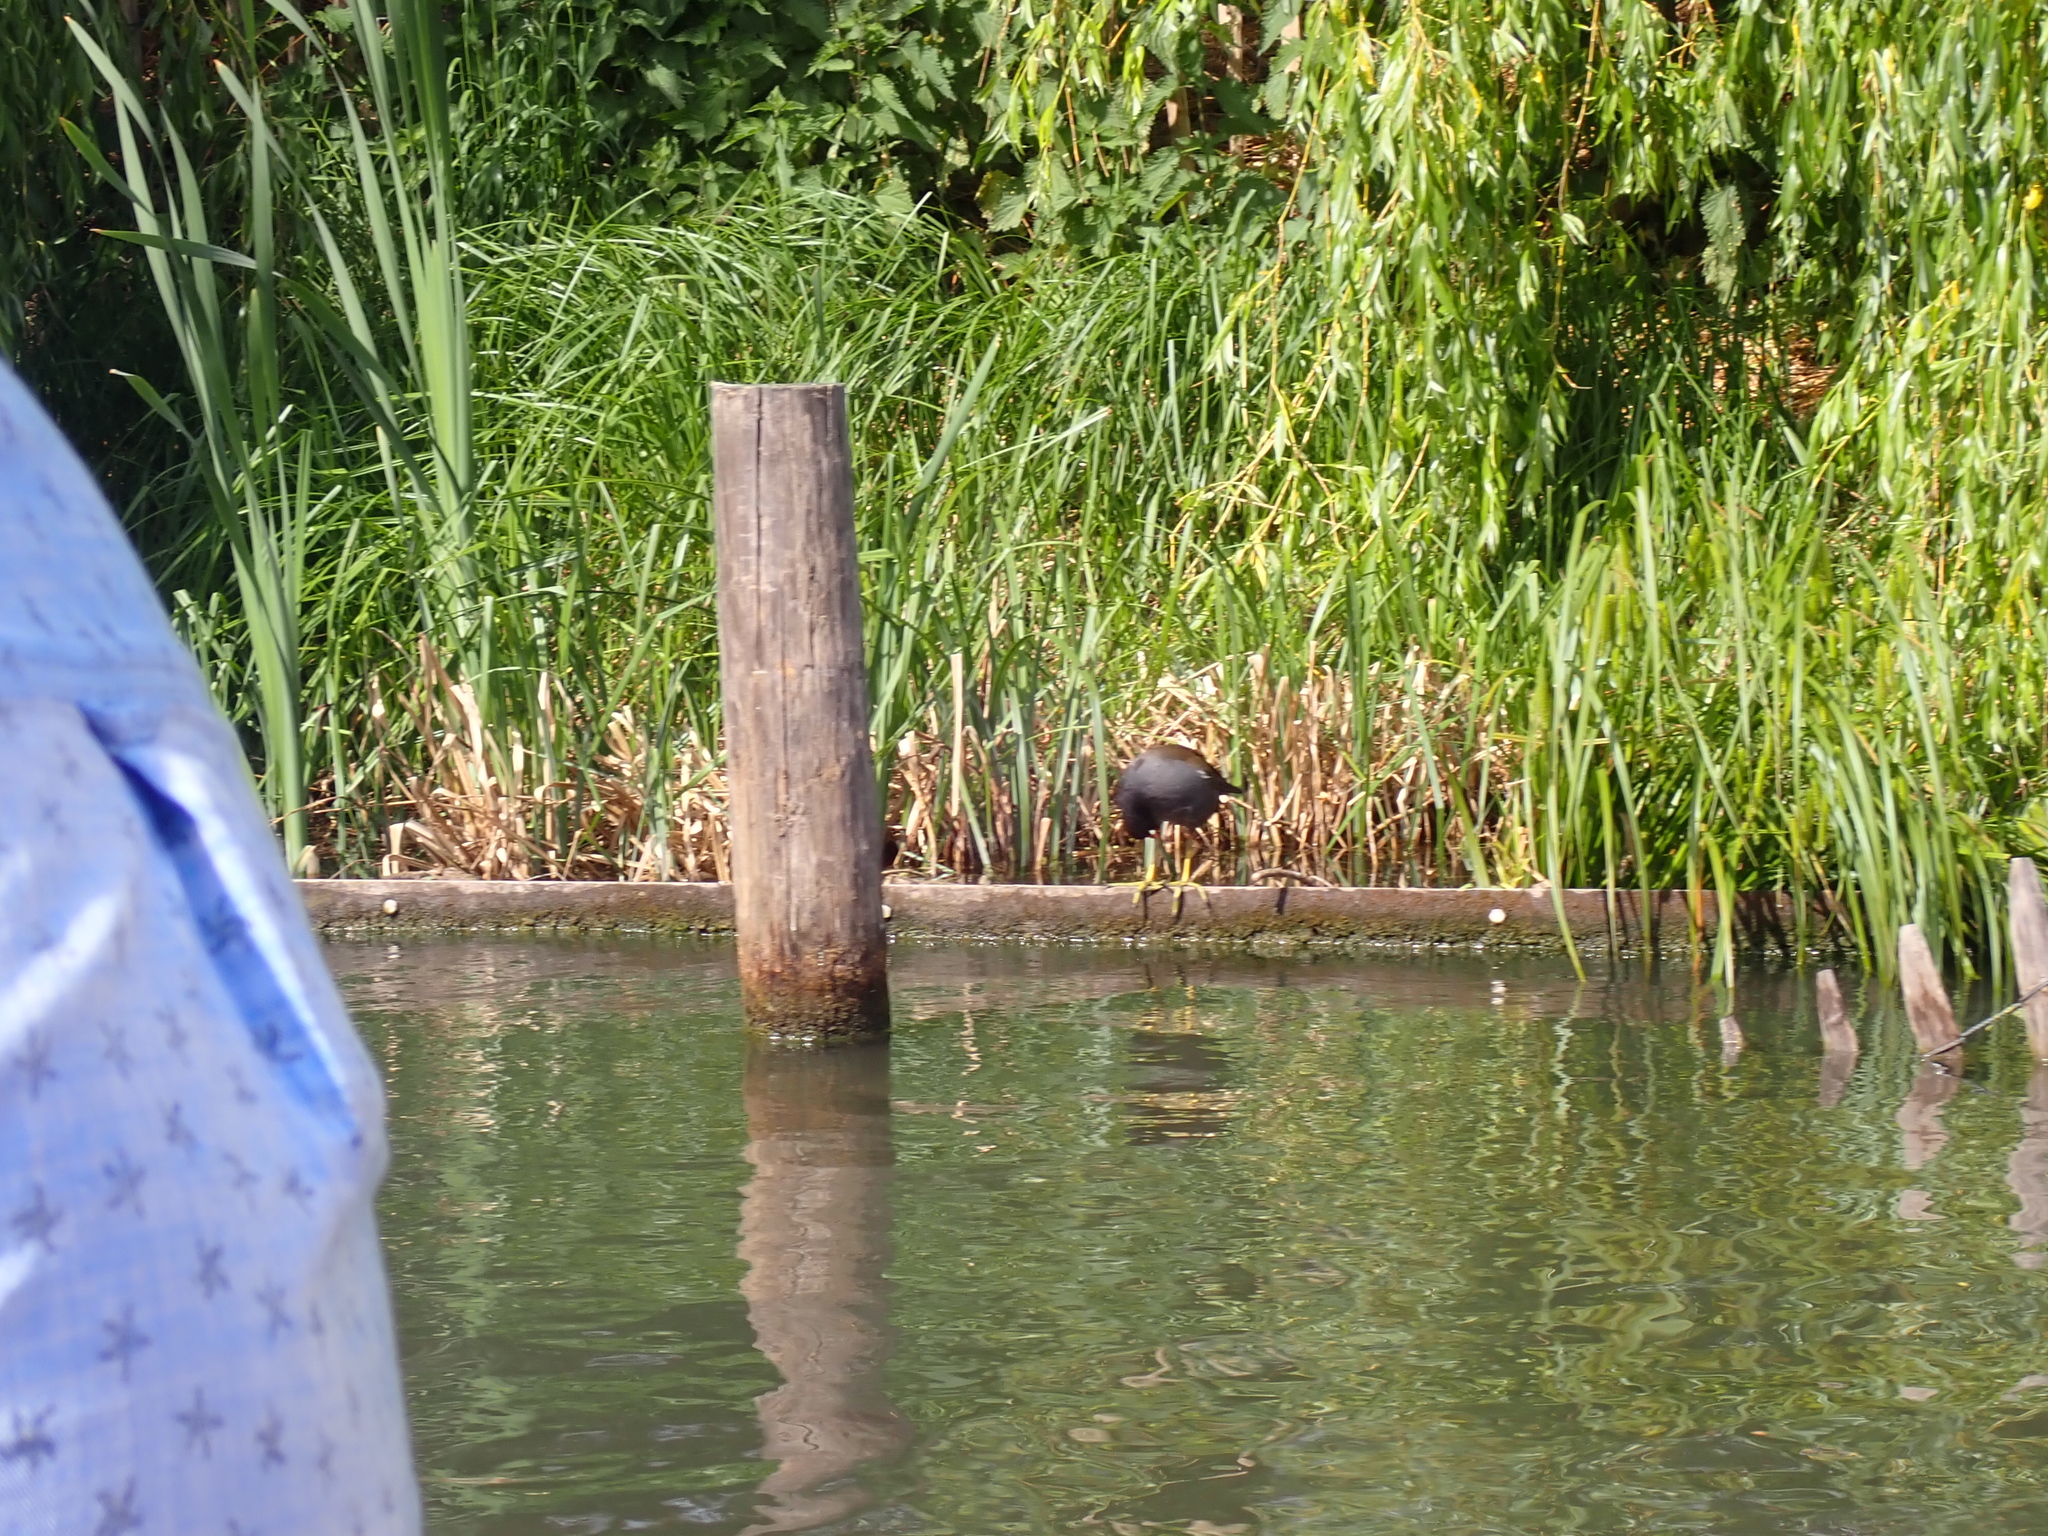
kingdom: Animalia
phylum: Chordata
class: Aves
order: Gruiformes
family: Rallidae
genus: Gallinula
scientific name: Gallinula chloropus
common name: Common moorhen
